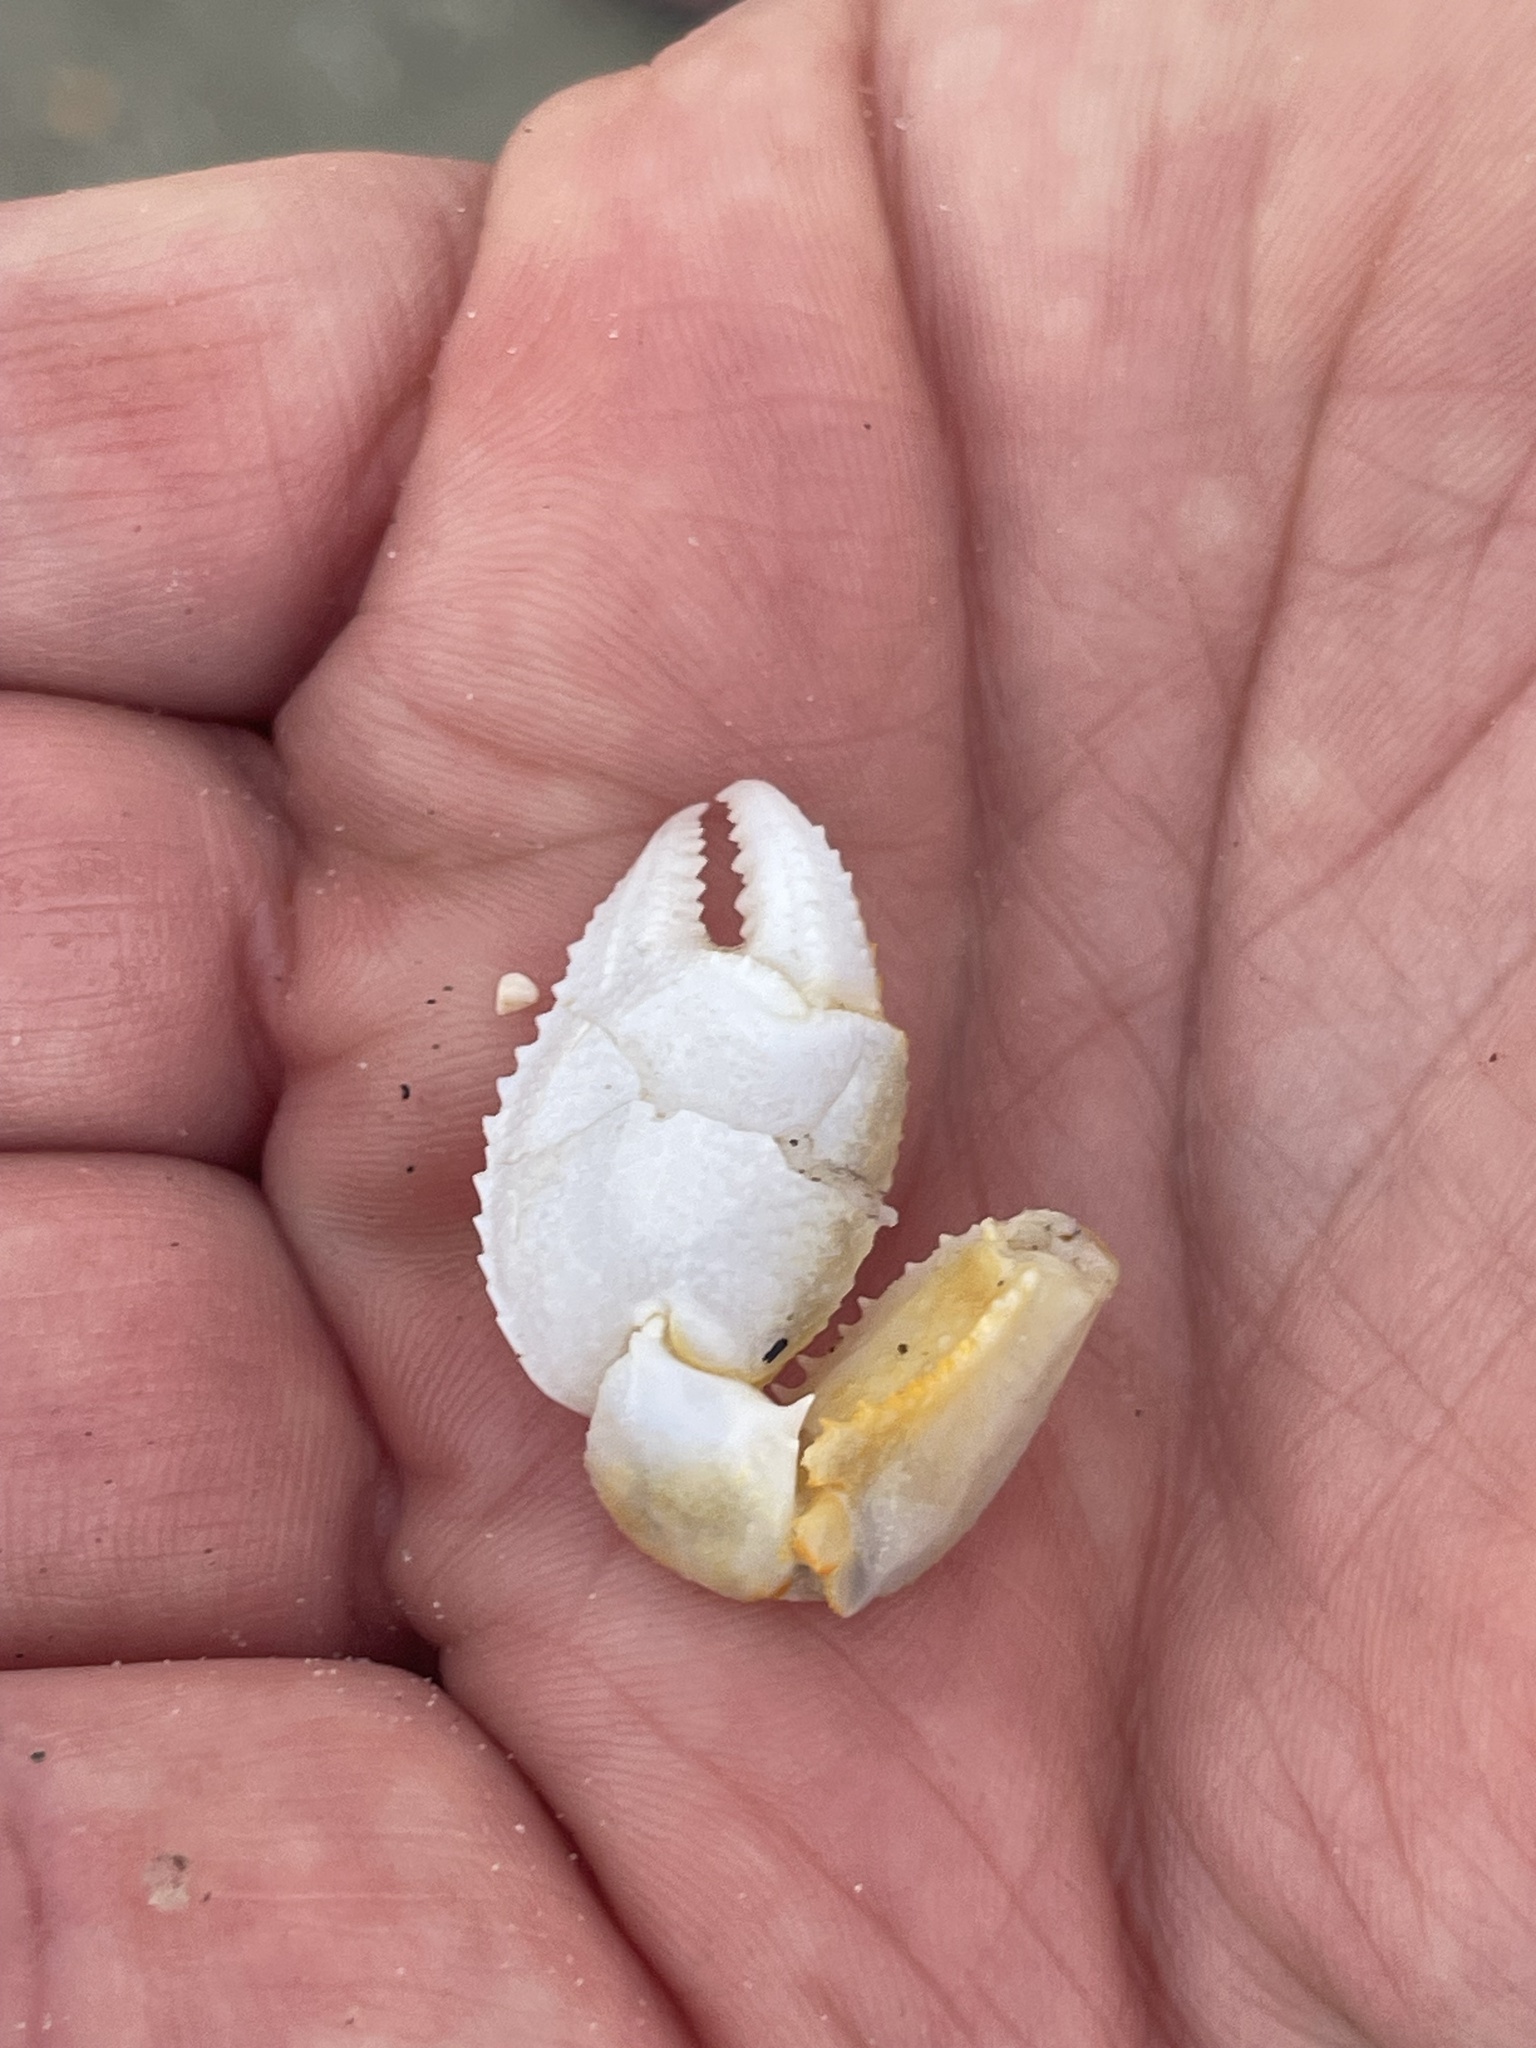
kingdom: Animalia
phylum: Arthropoda
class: Malacostraca
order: Decapoda
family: Ocypodidae
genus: Ocypode
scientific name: Ocypode quadrata
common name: Ghost crab
